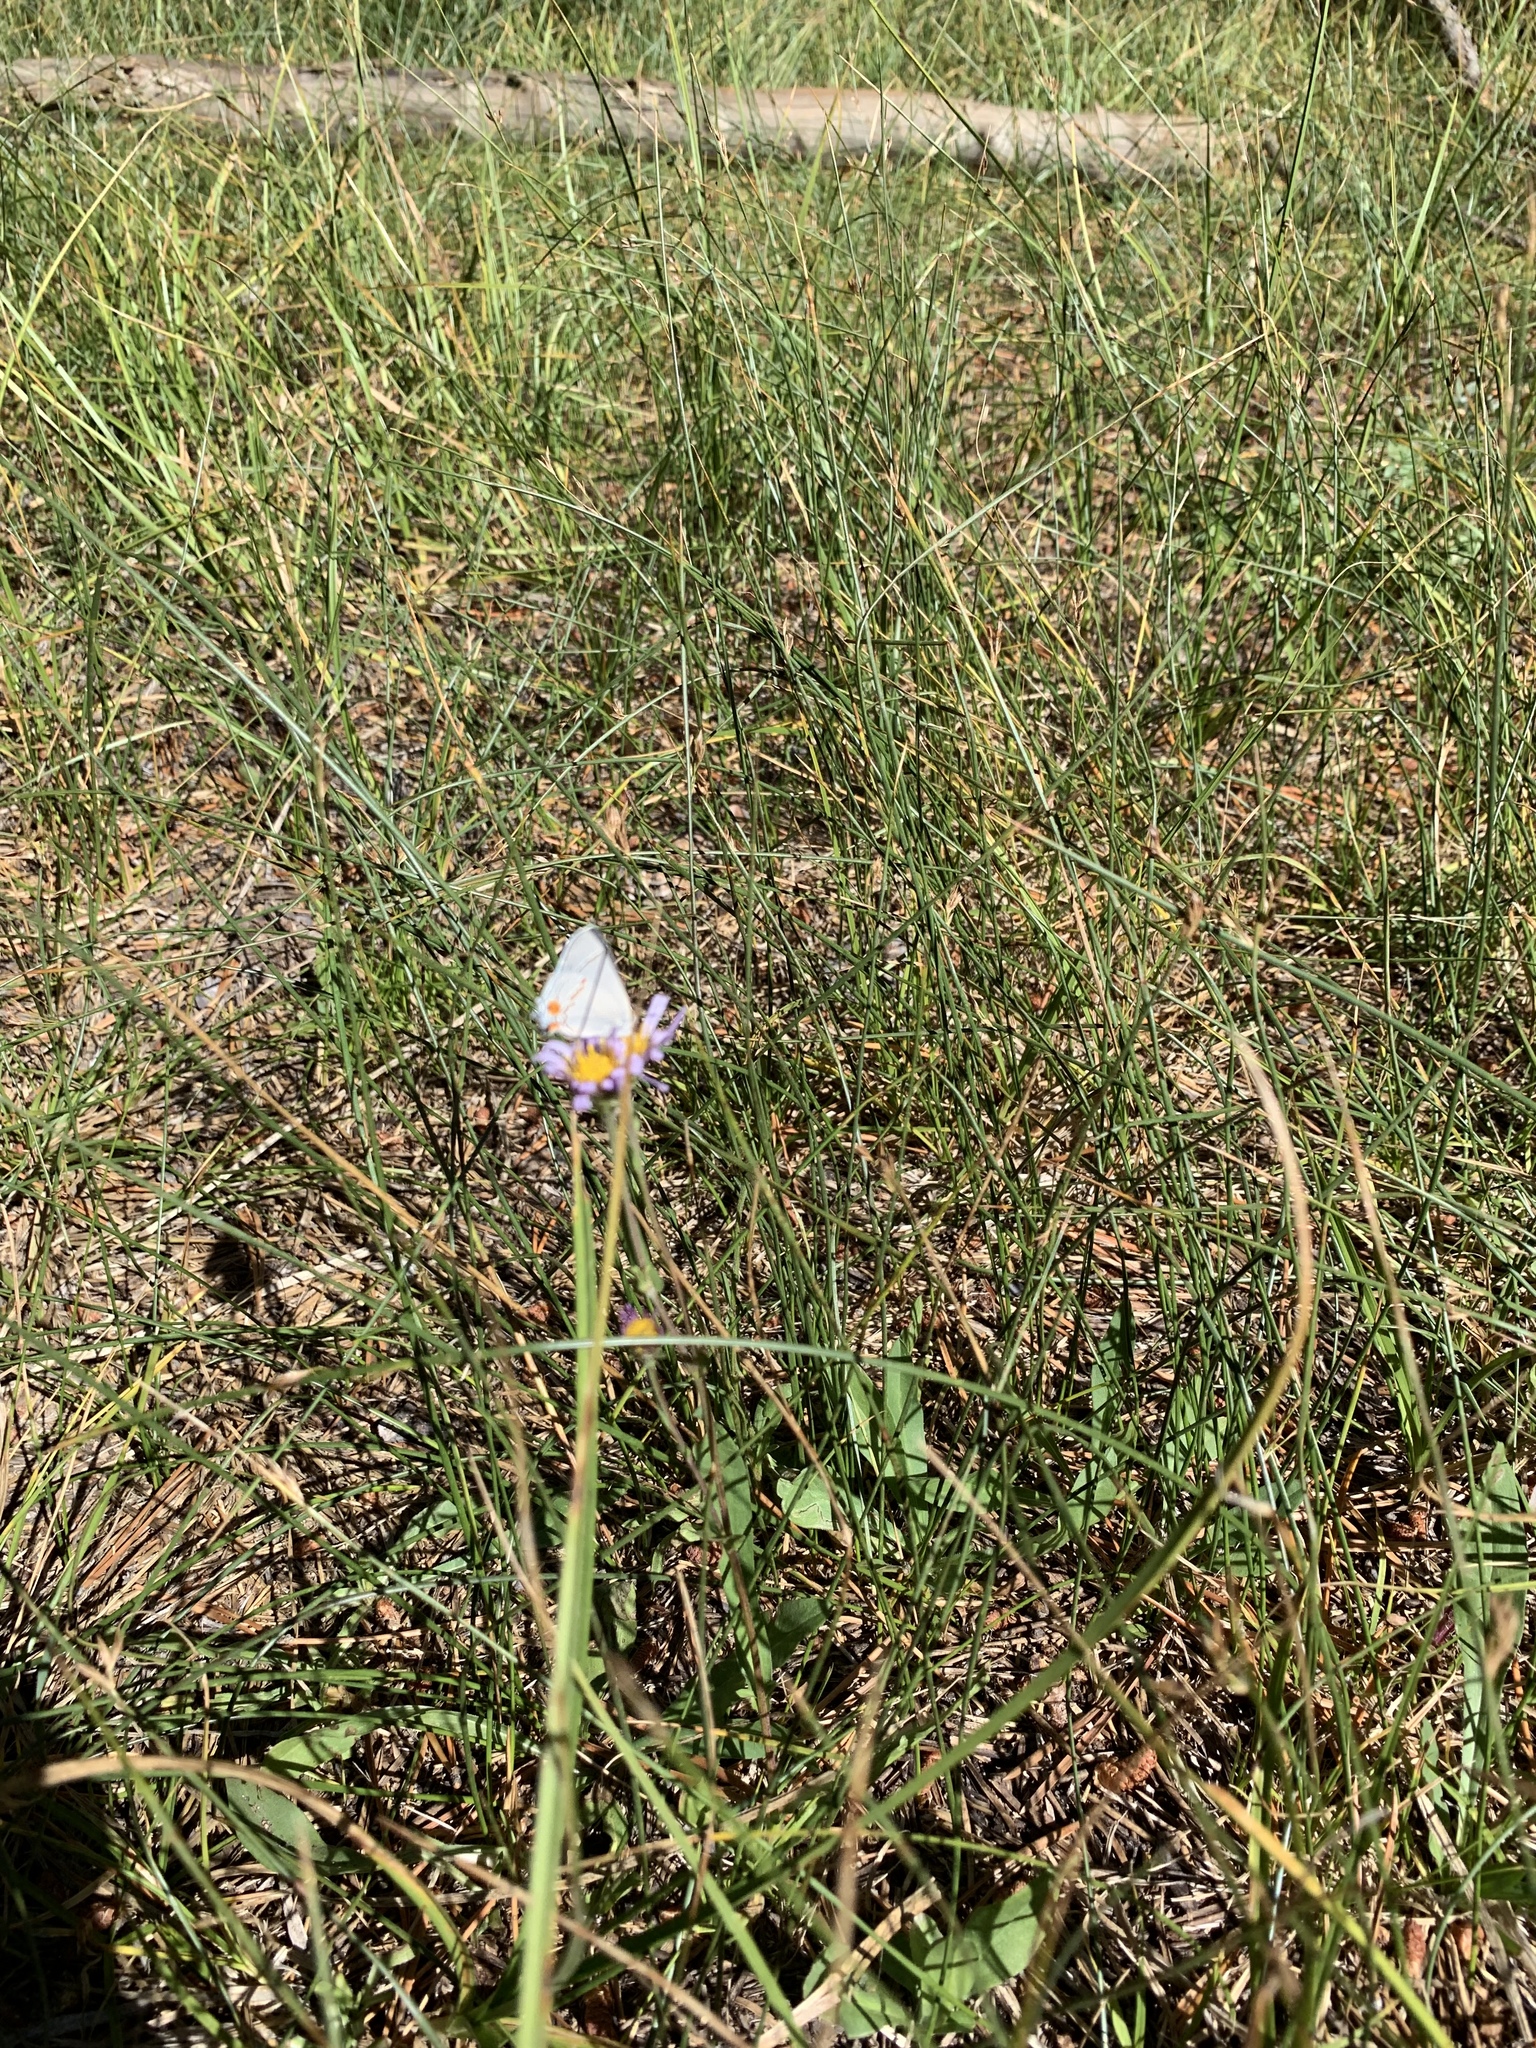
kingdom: Animalia
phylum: Arthropoda
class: Insecta
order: Lepidoptera
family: Lycaenidae
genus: Strymon
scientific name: Strymon melinus
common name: Gray hairstreak
